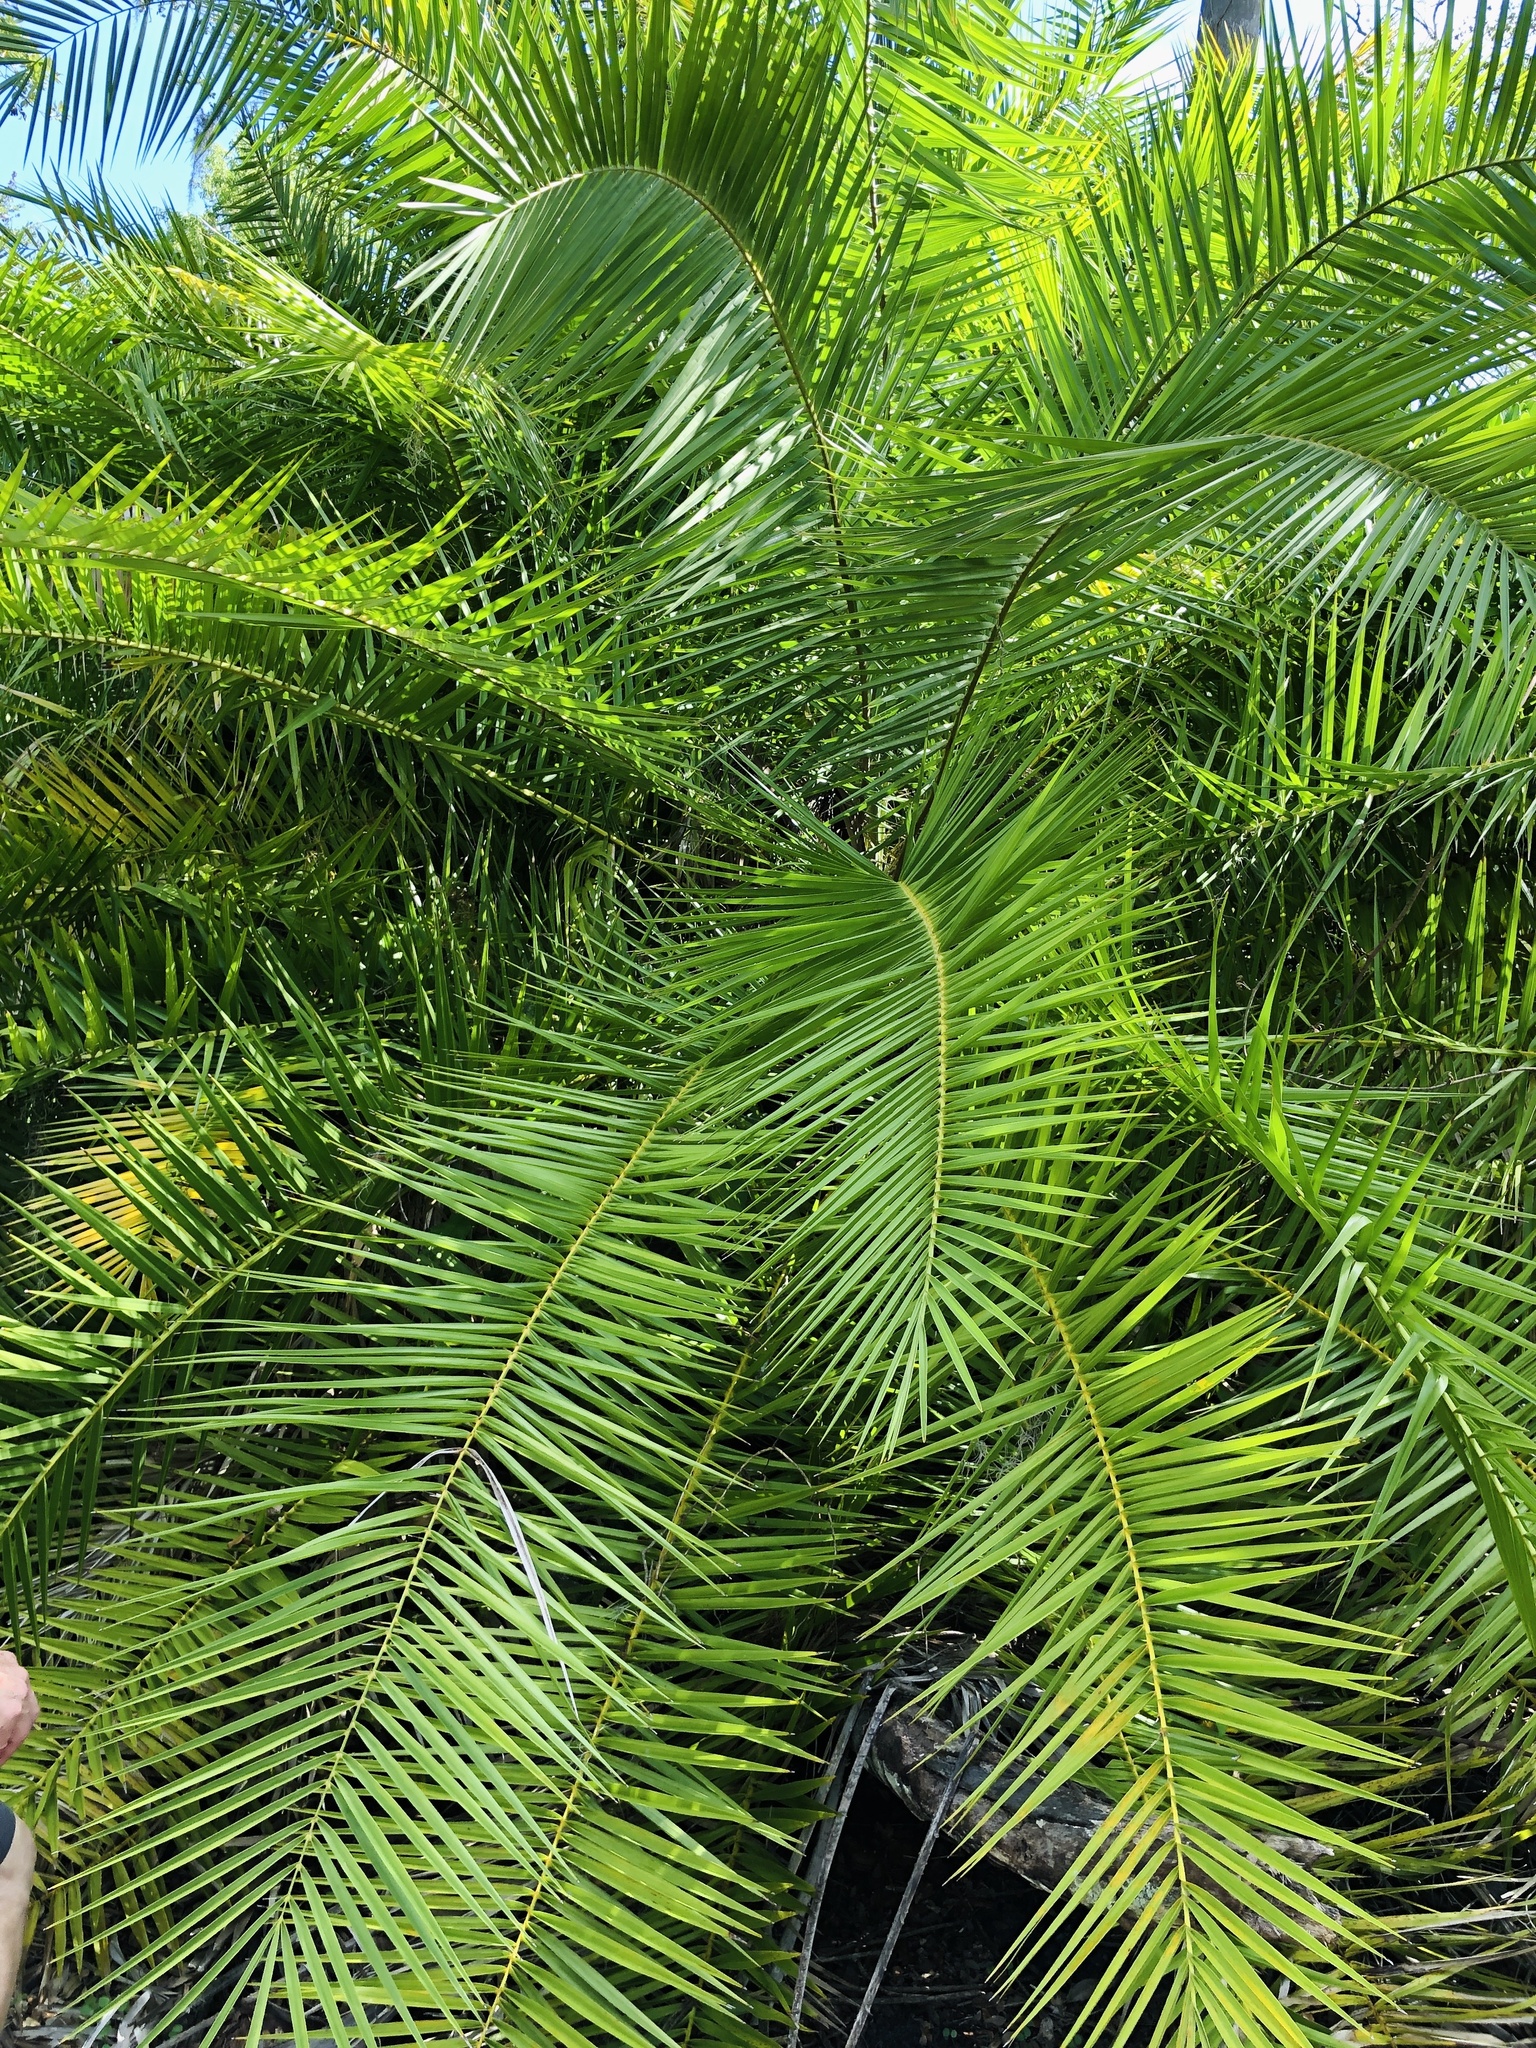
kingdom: Plantae
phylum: Tracheophyta
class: Liliopsida
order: Arecales
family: Arecaceae
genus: Phoenix
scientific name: Phoenix reclinata
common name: Senegal date palm
